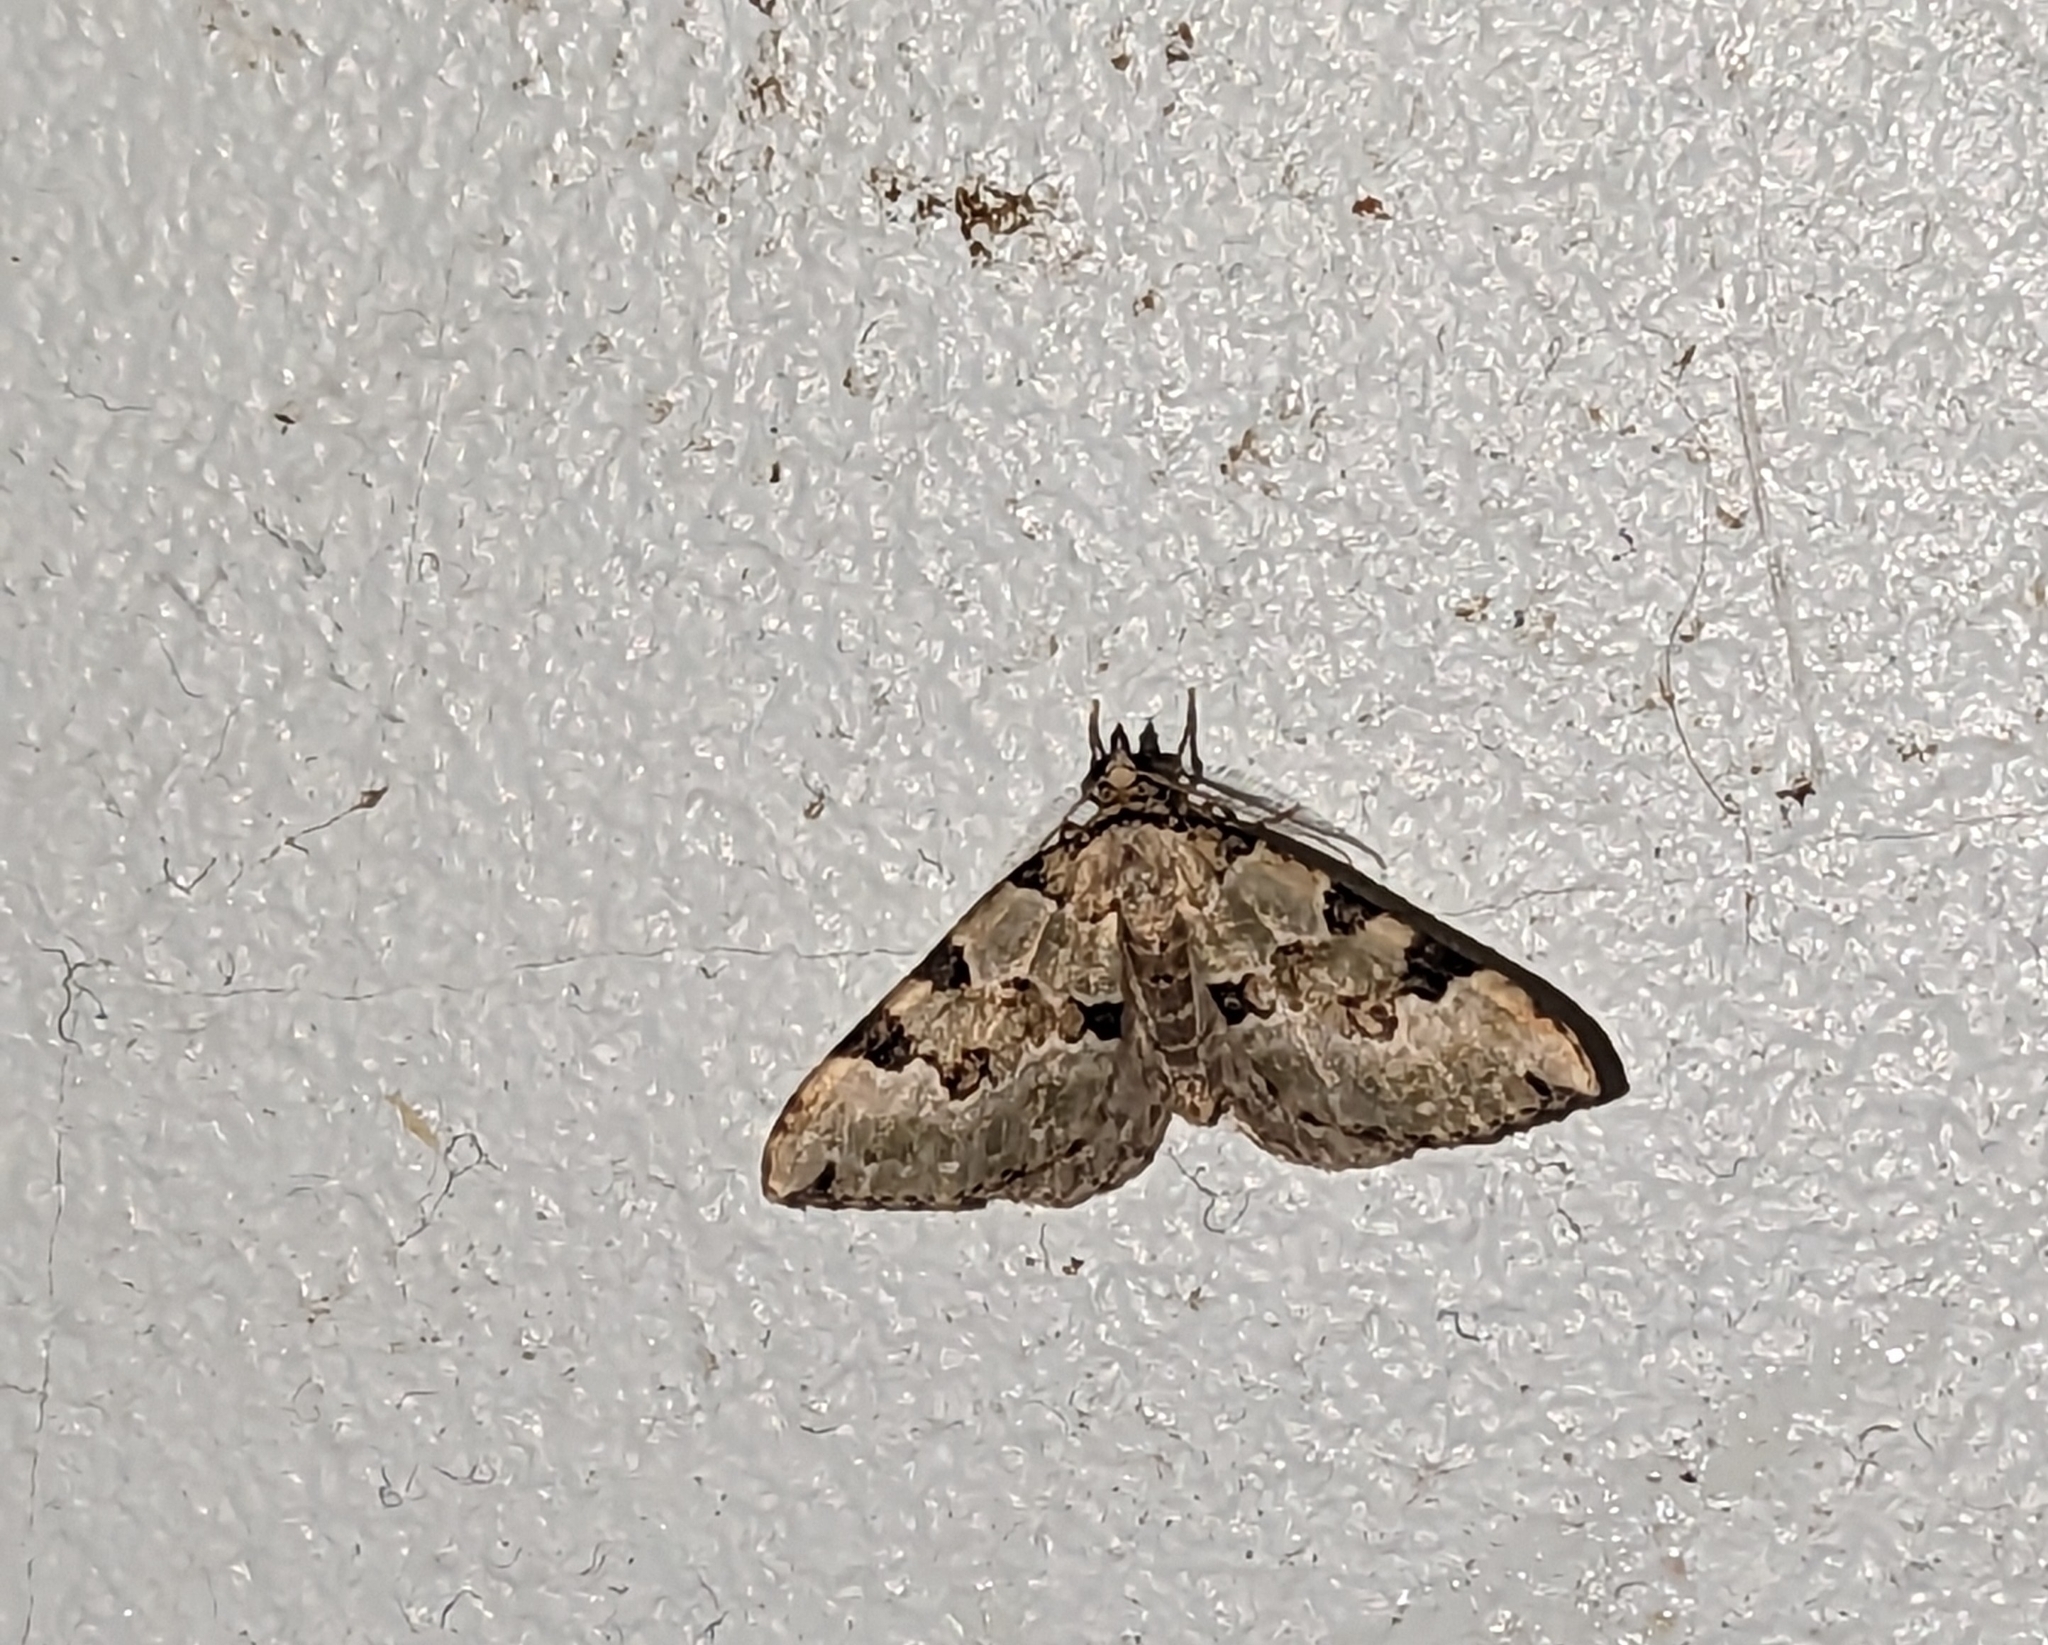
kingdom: Animalia
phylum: Arthropoda
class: Insecta
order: Lepidoptera
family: Geometridae
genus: Colostygia
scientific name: Colostygia pectinataria
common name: Green carpet
